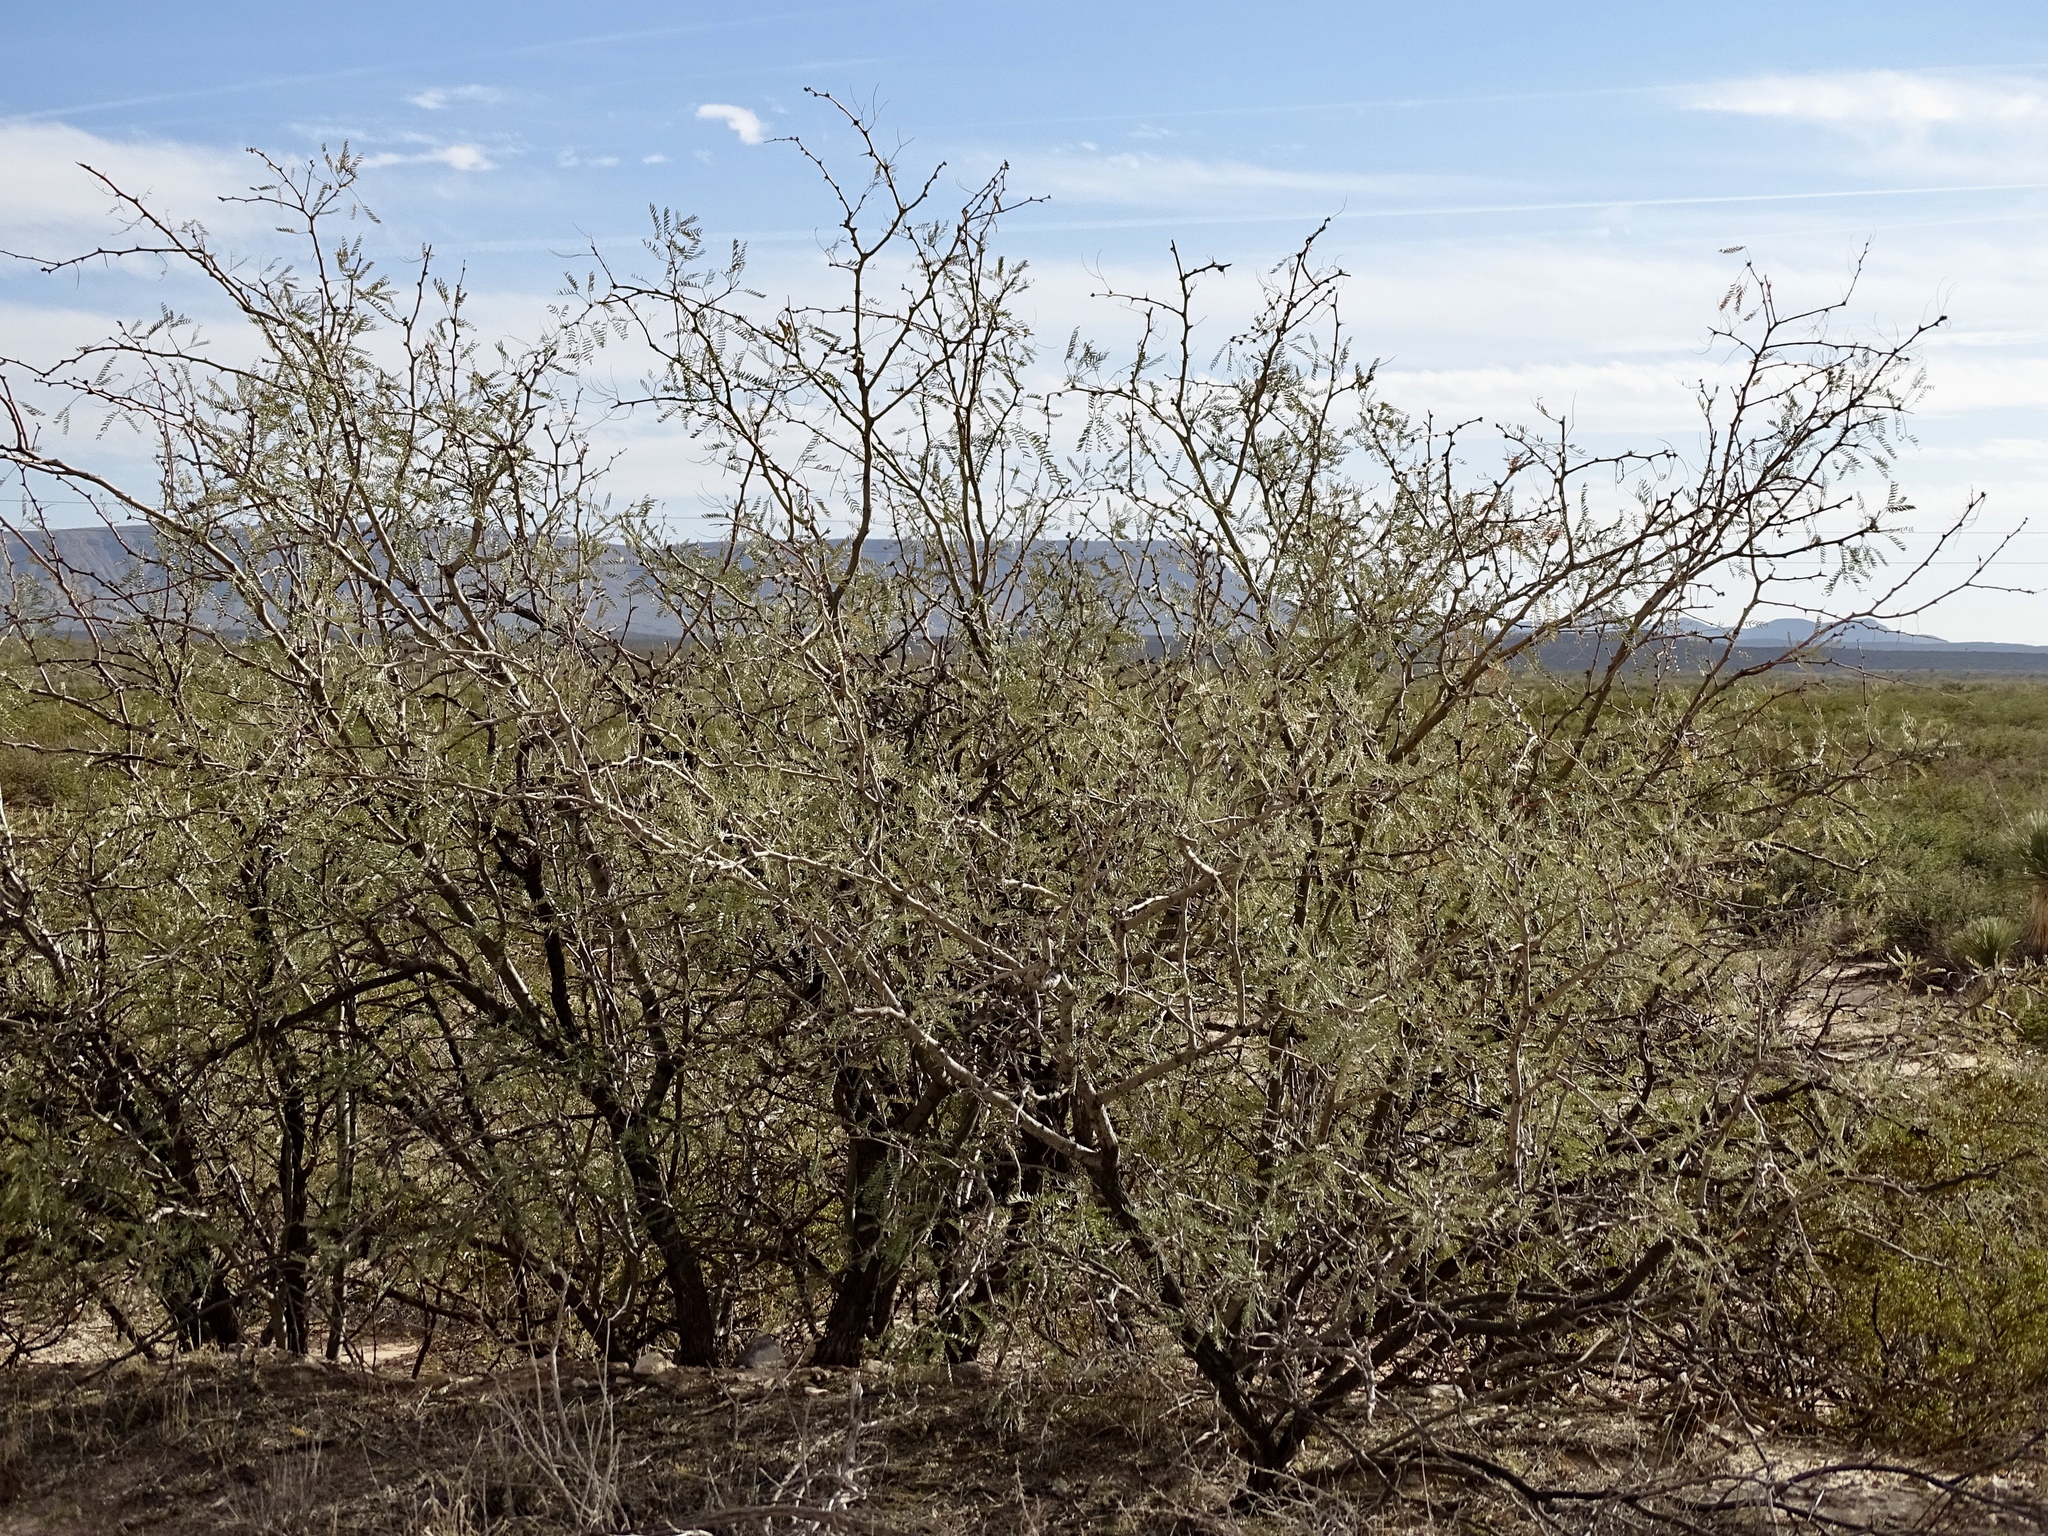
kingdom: Plantae
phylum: Tracheophyta
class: Magnoliopsida
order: Fabales
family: Fabaceae
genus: Prosopis
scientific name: Prosopis glandulosa
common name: Honey mesquite
